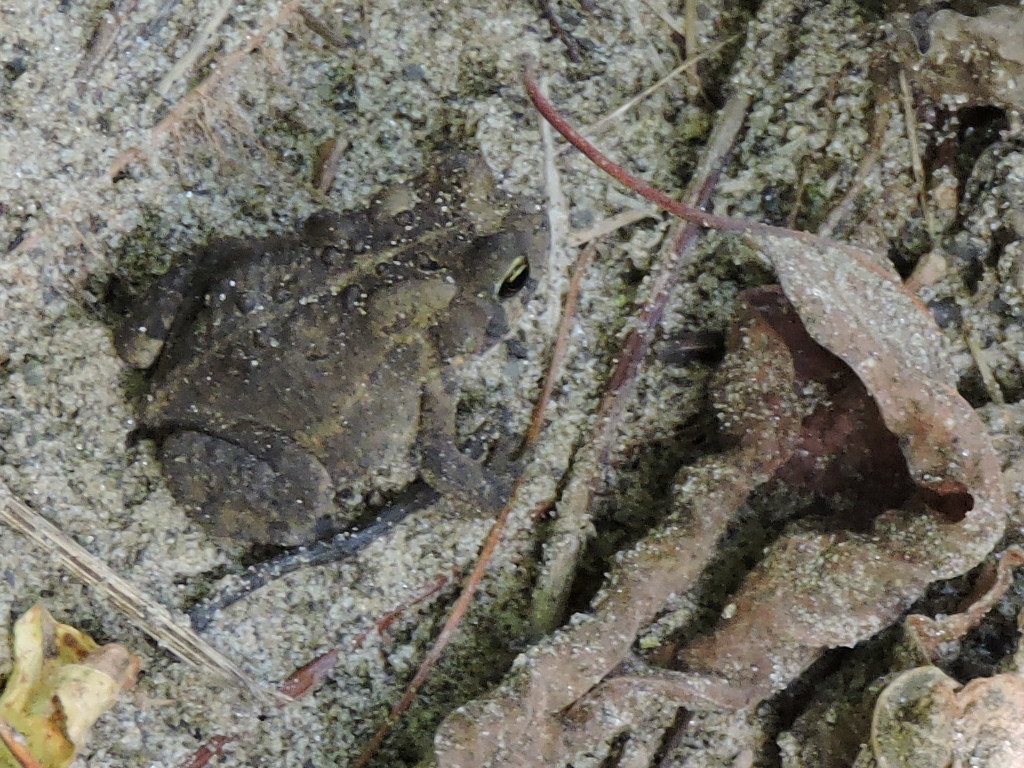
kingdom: Animalia
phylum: Chordata
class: Amphibia
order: Anura
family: Bufonidae
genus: Anaxyrus
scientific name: Anaxyrus americanus
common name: American toad
